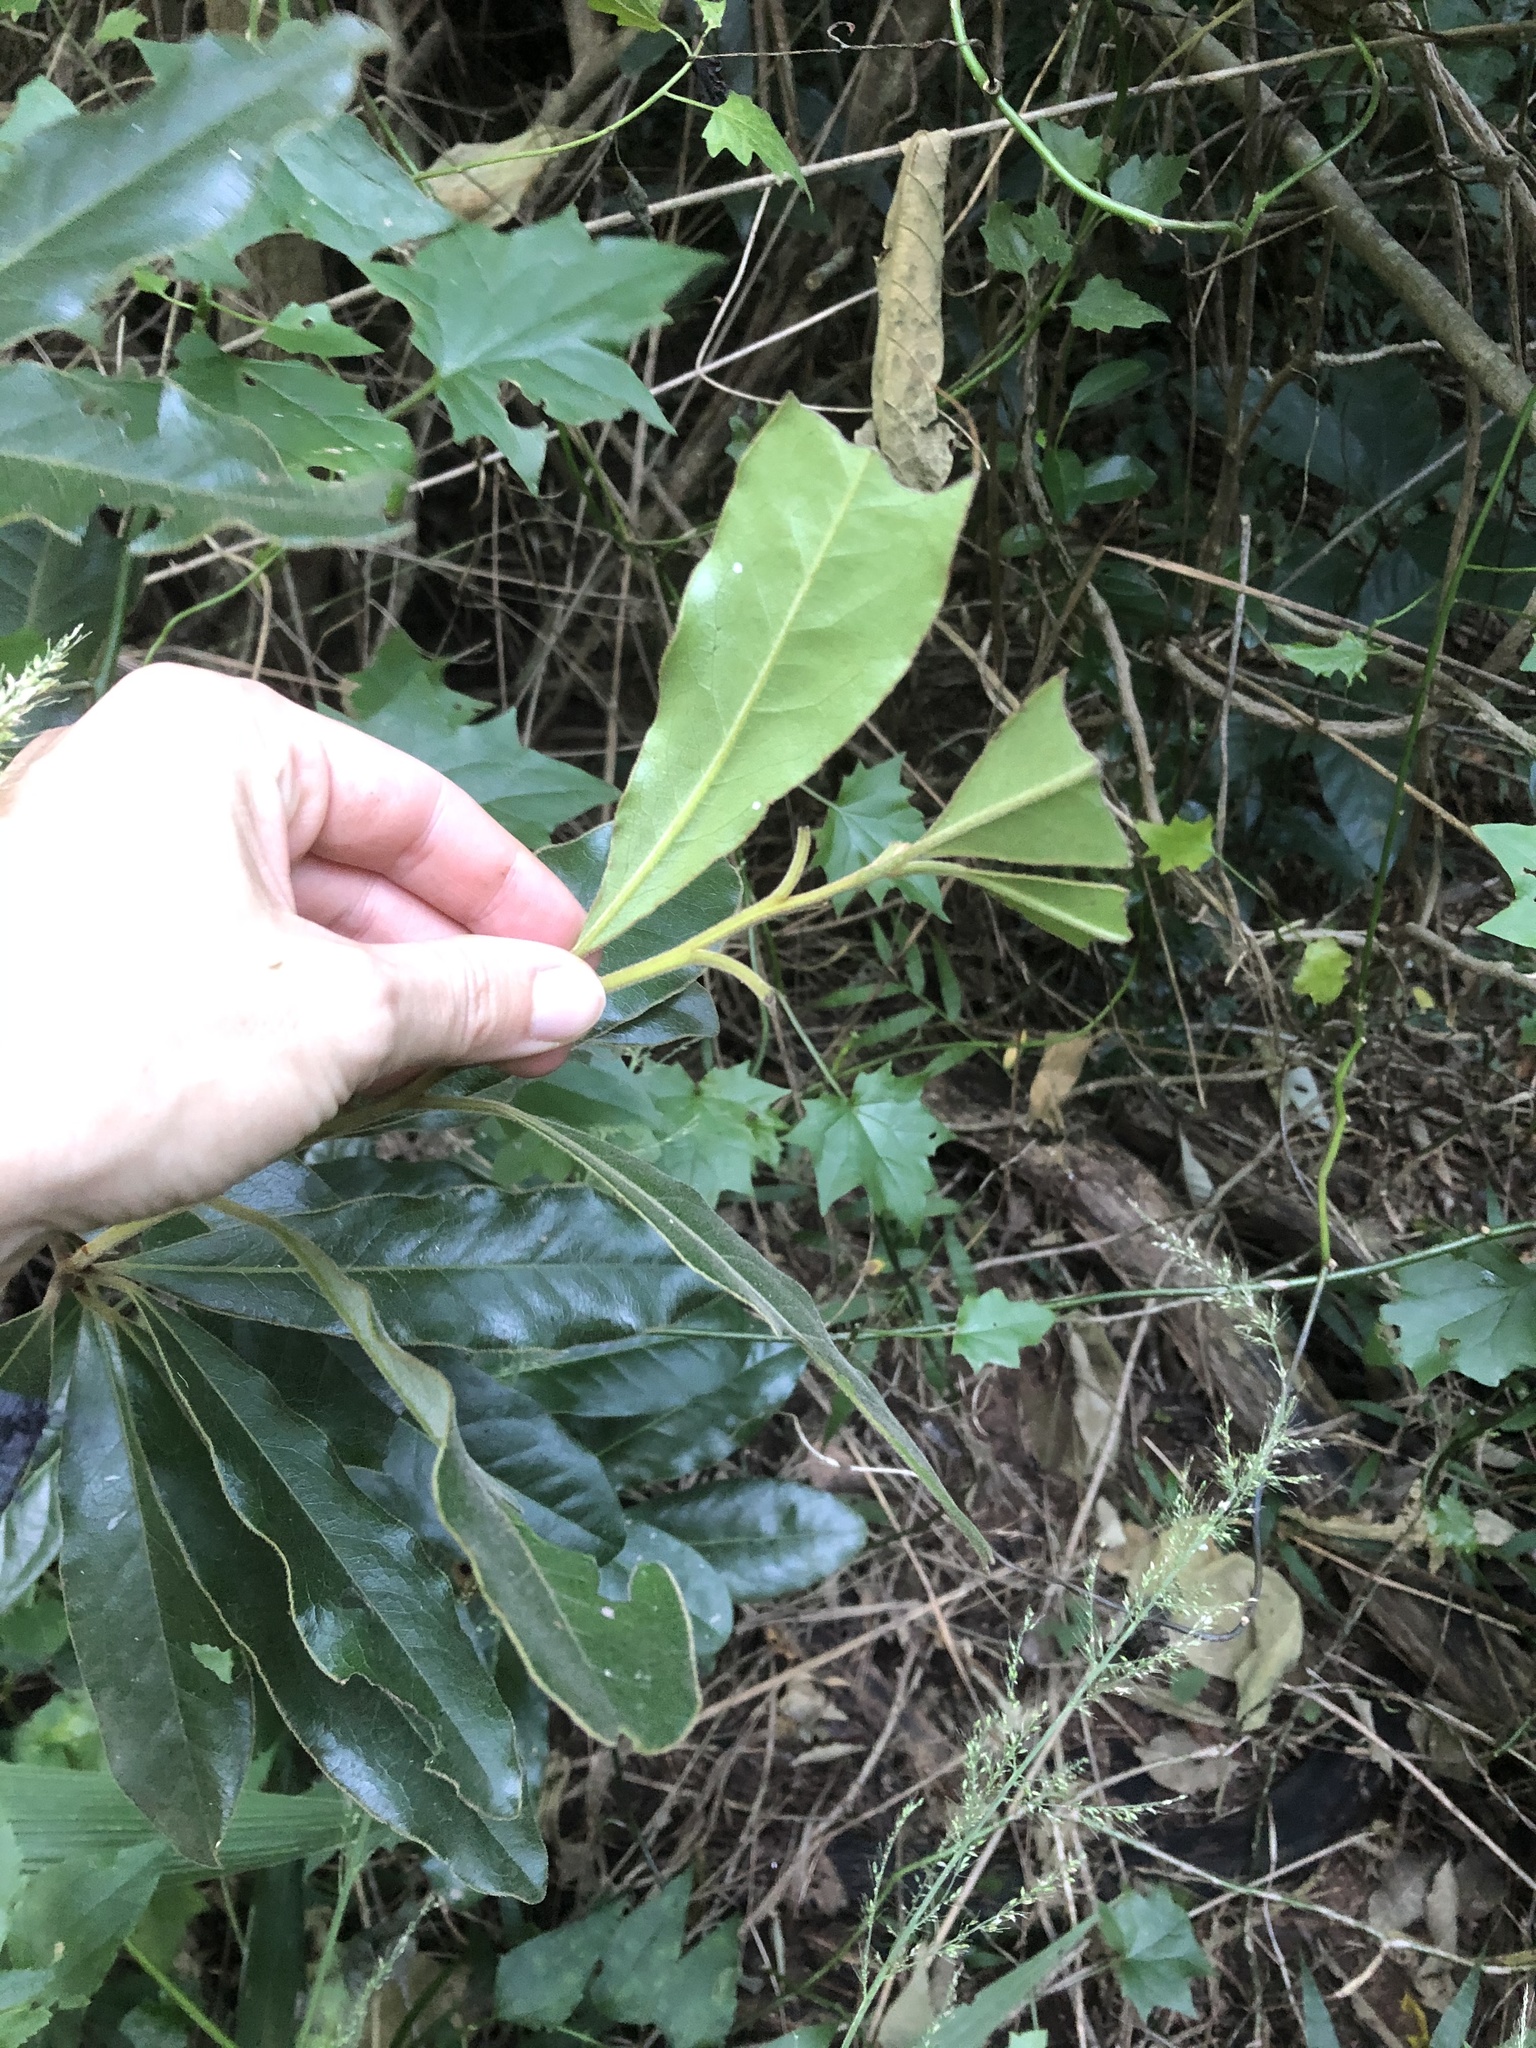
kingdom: Plantae
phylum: Tracheophyta
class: Magnoliopsida
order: Ericales
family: Ebenaceae
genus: Euclea
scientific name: Euclea natalensis
